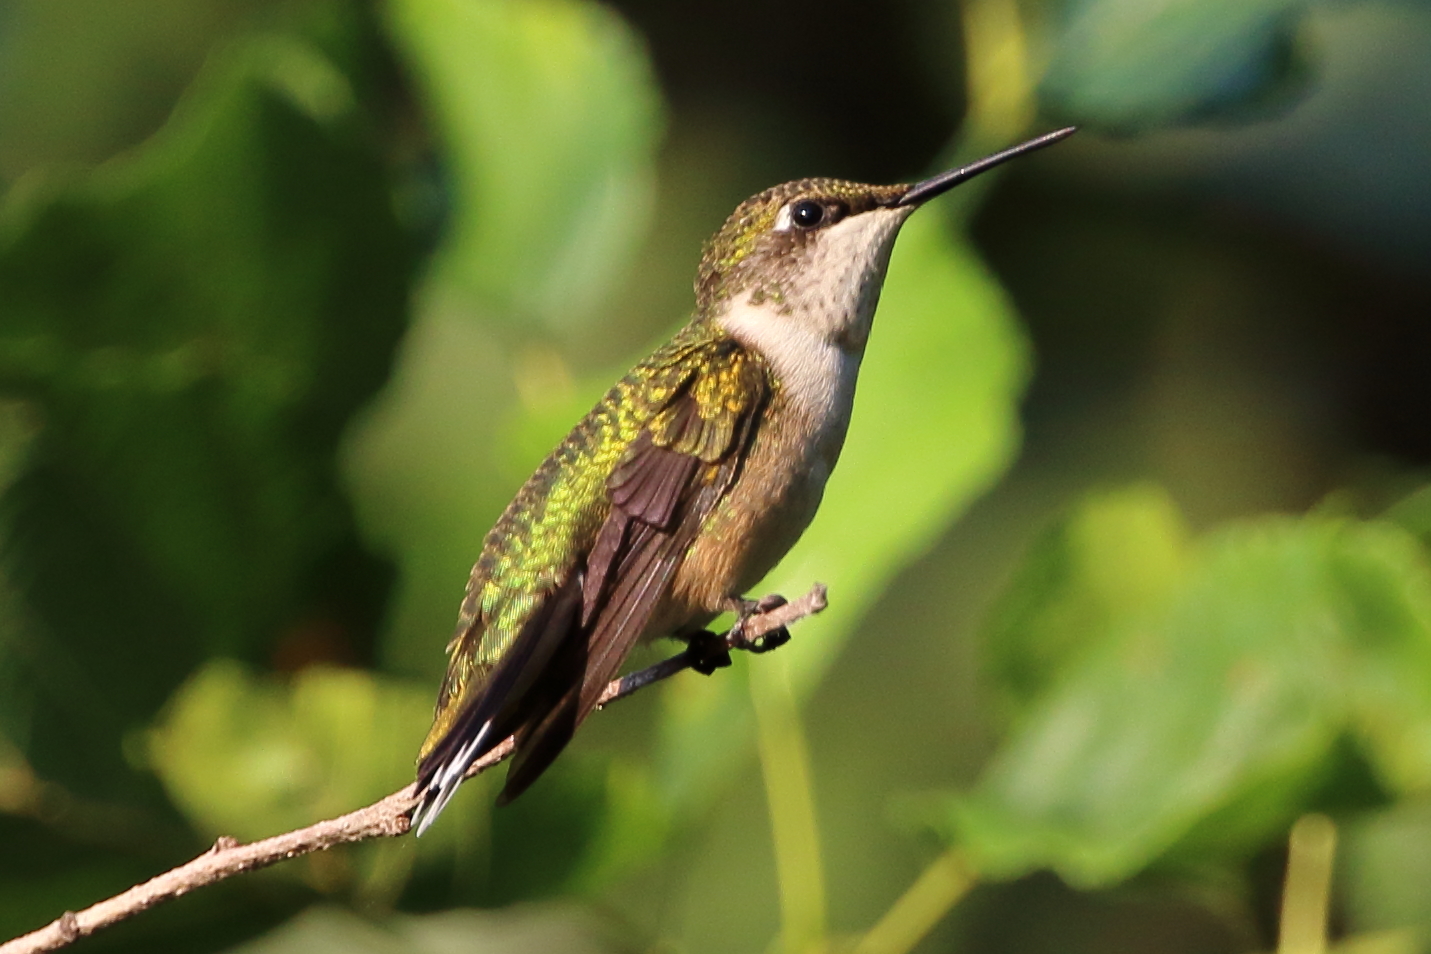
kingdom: Animalia
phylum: Chordata
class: Aves
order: Apodiformes
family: Trochilidae
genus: Archilochus
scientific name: Archilochus colubris
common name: Ruby-throated hummingbird
